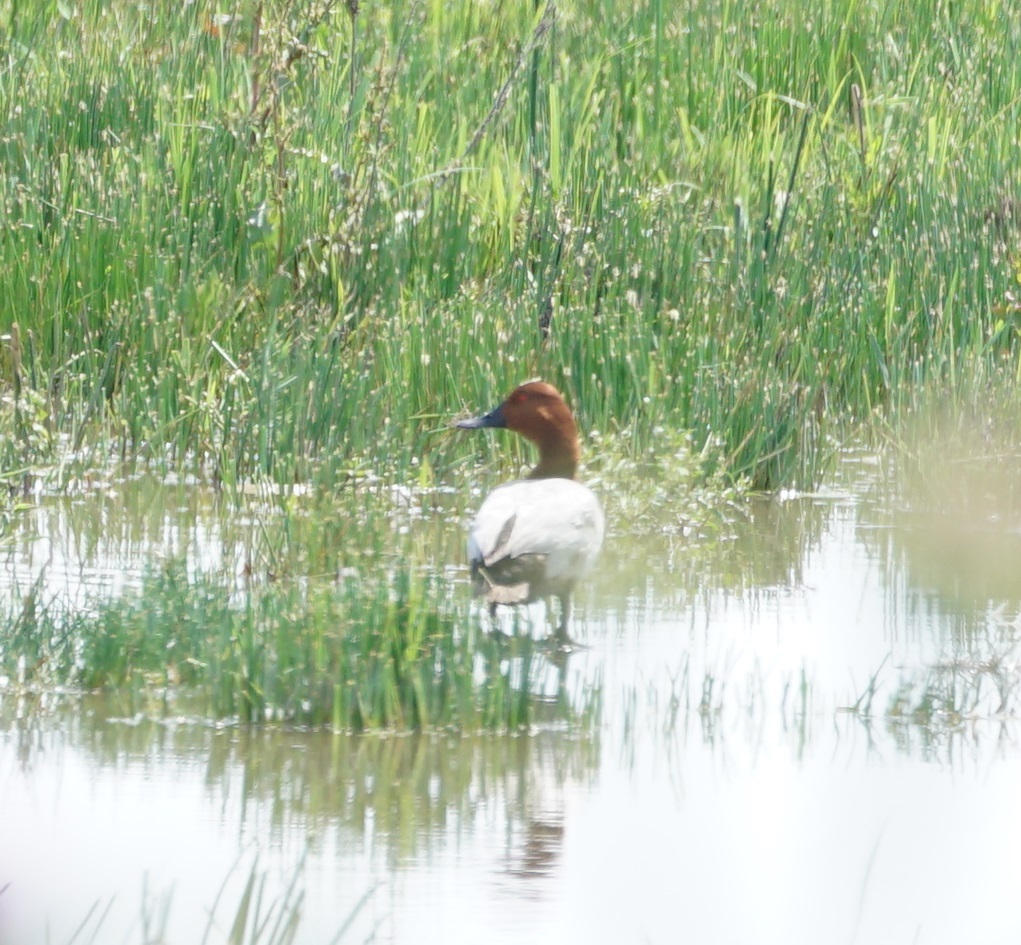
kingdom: Animalia
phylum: Chordata
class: Aves
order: Anseriformes
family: Anatidae
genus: Aythya
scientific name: Aythya ferina
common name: Common pochard
